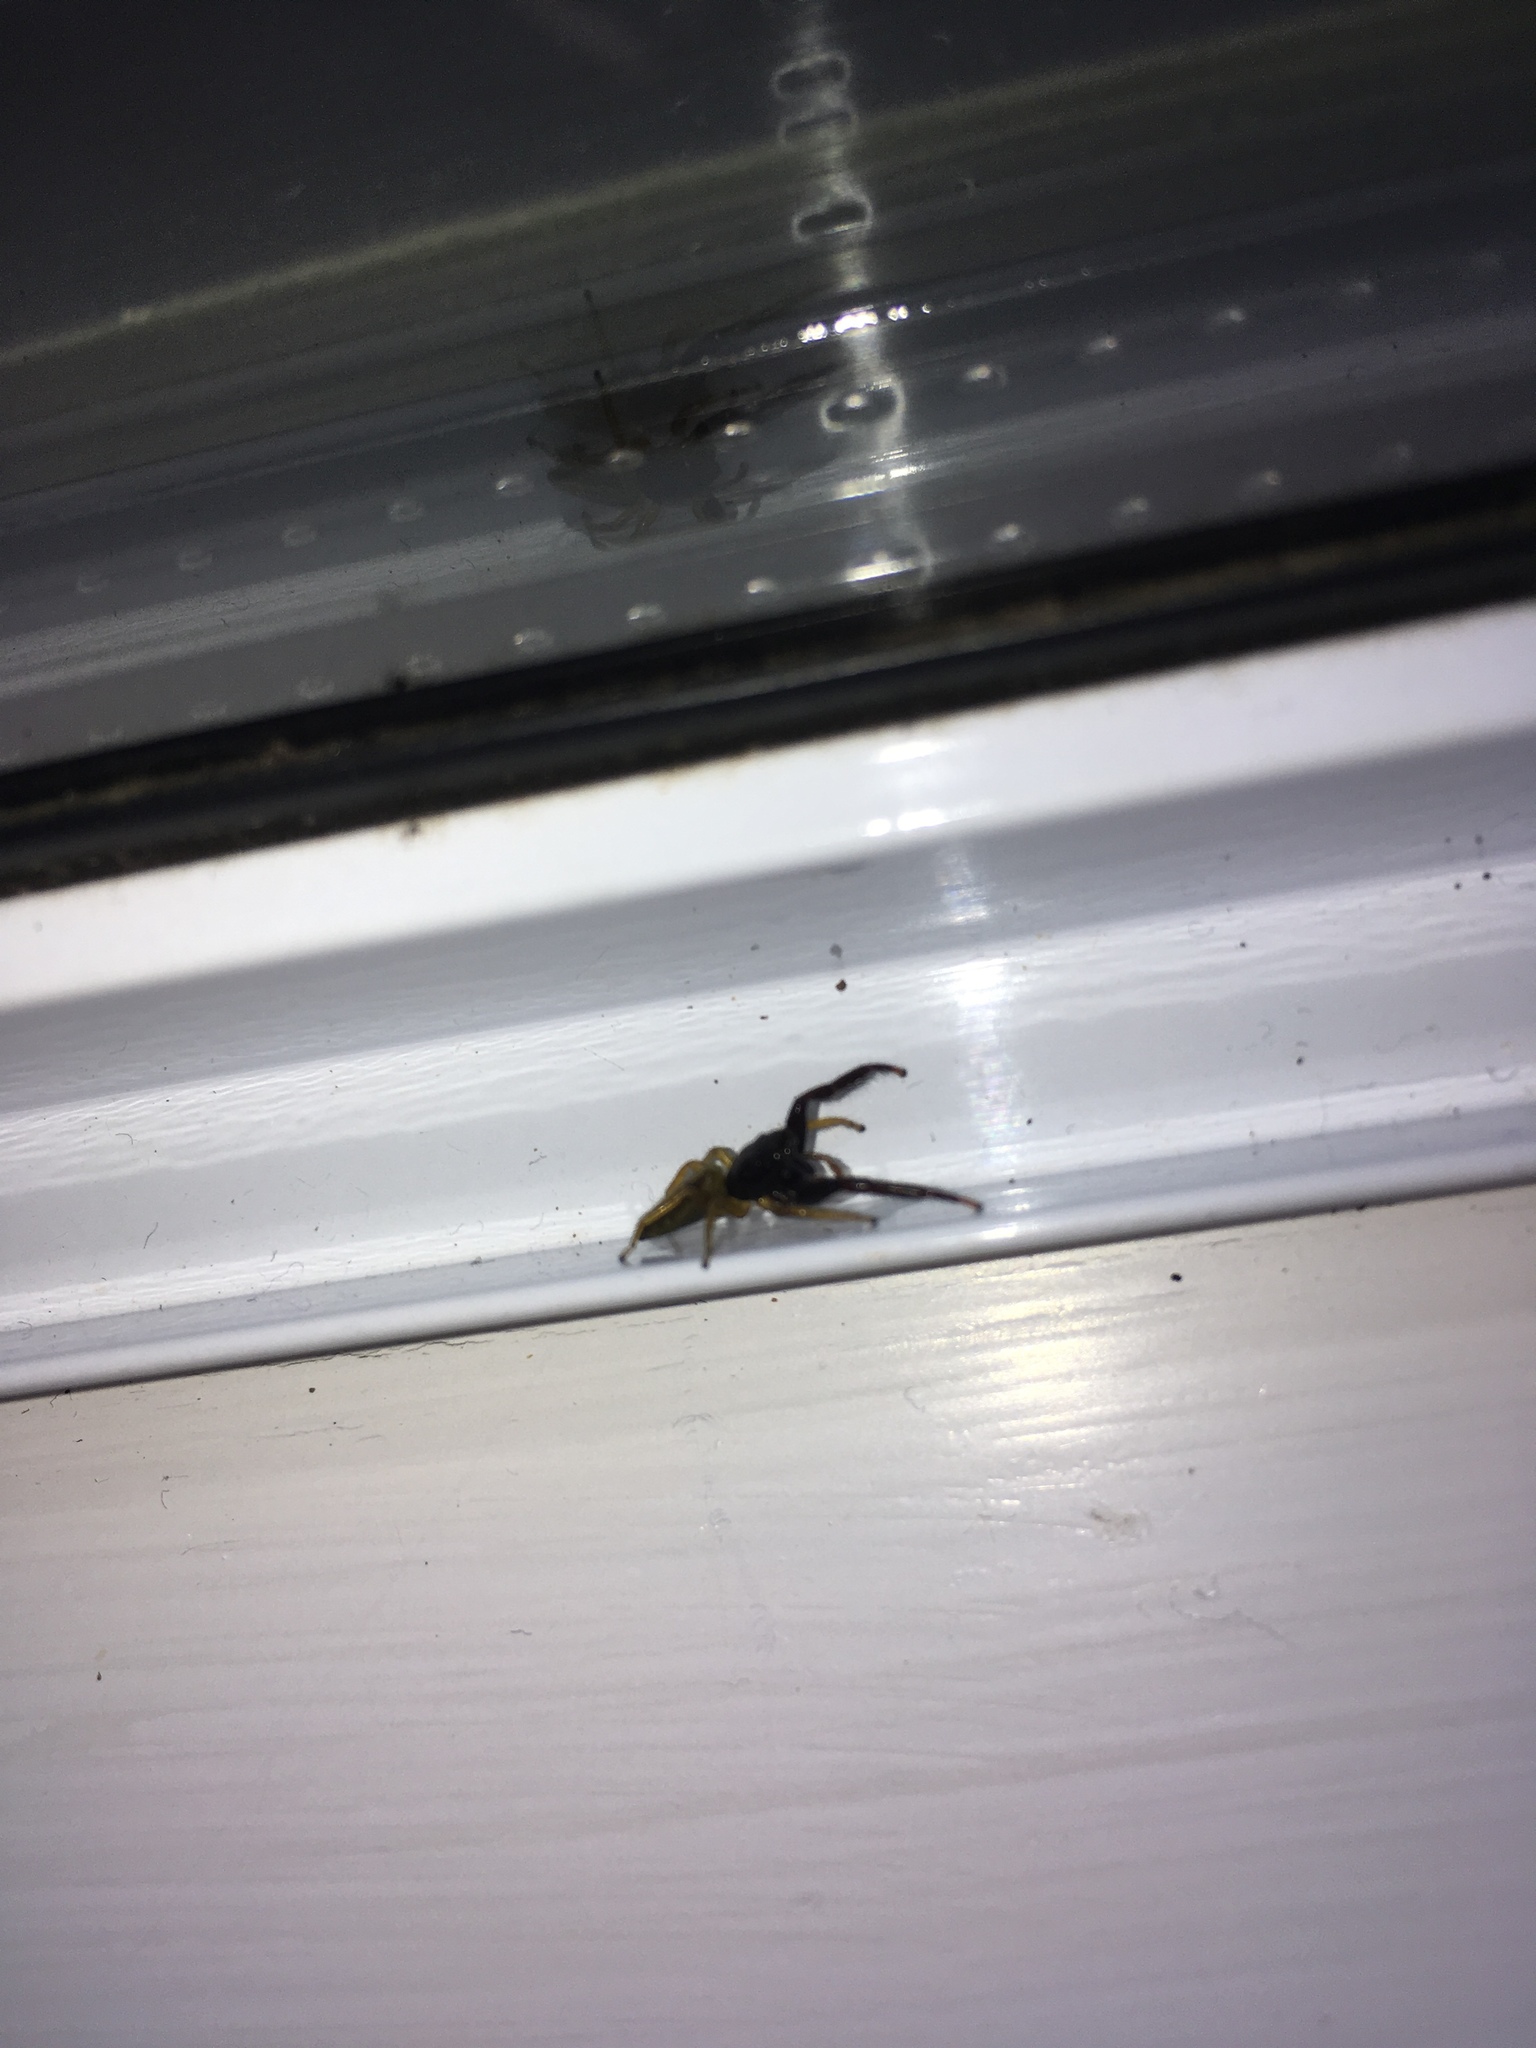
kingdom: Animalia
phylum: Arthropoda
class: Arachnida
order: Araneae
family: Salticidae
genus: Trite
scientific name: Trite planiceps
